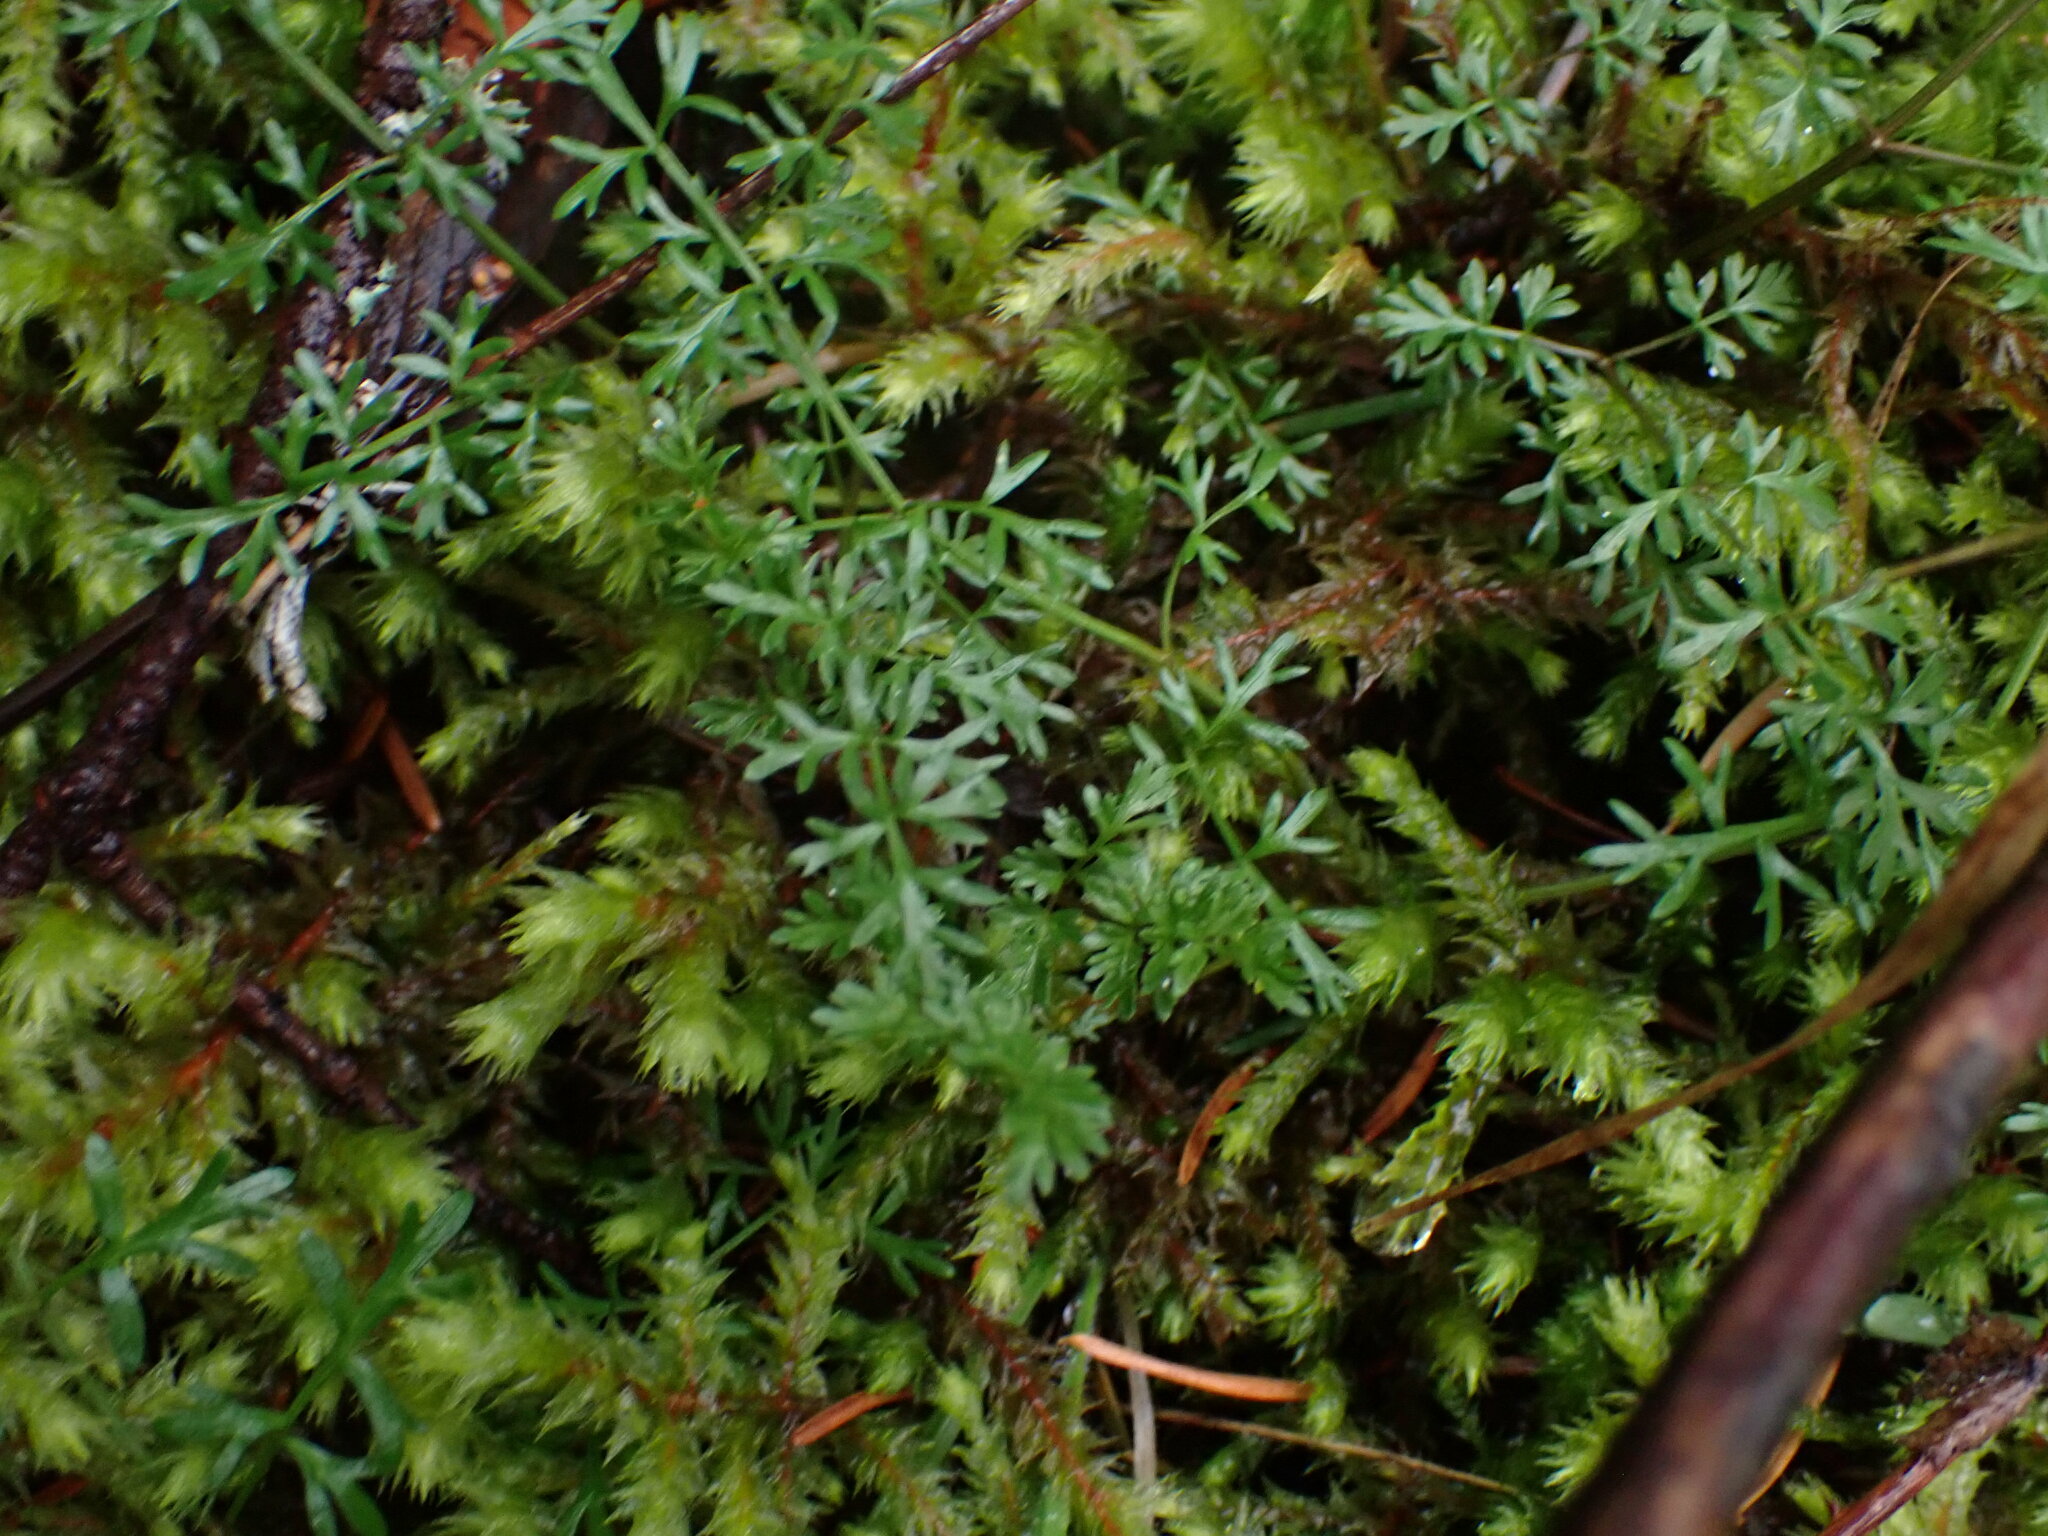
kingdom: Plantae
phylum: Tracheophyta
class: Magnoliopsida
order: Apiales
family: Apiaceae
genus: Lomatium
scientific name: Lomatium utriculatum
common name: Fine-leaf desert-parsley
